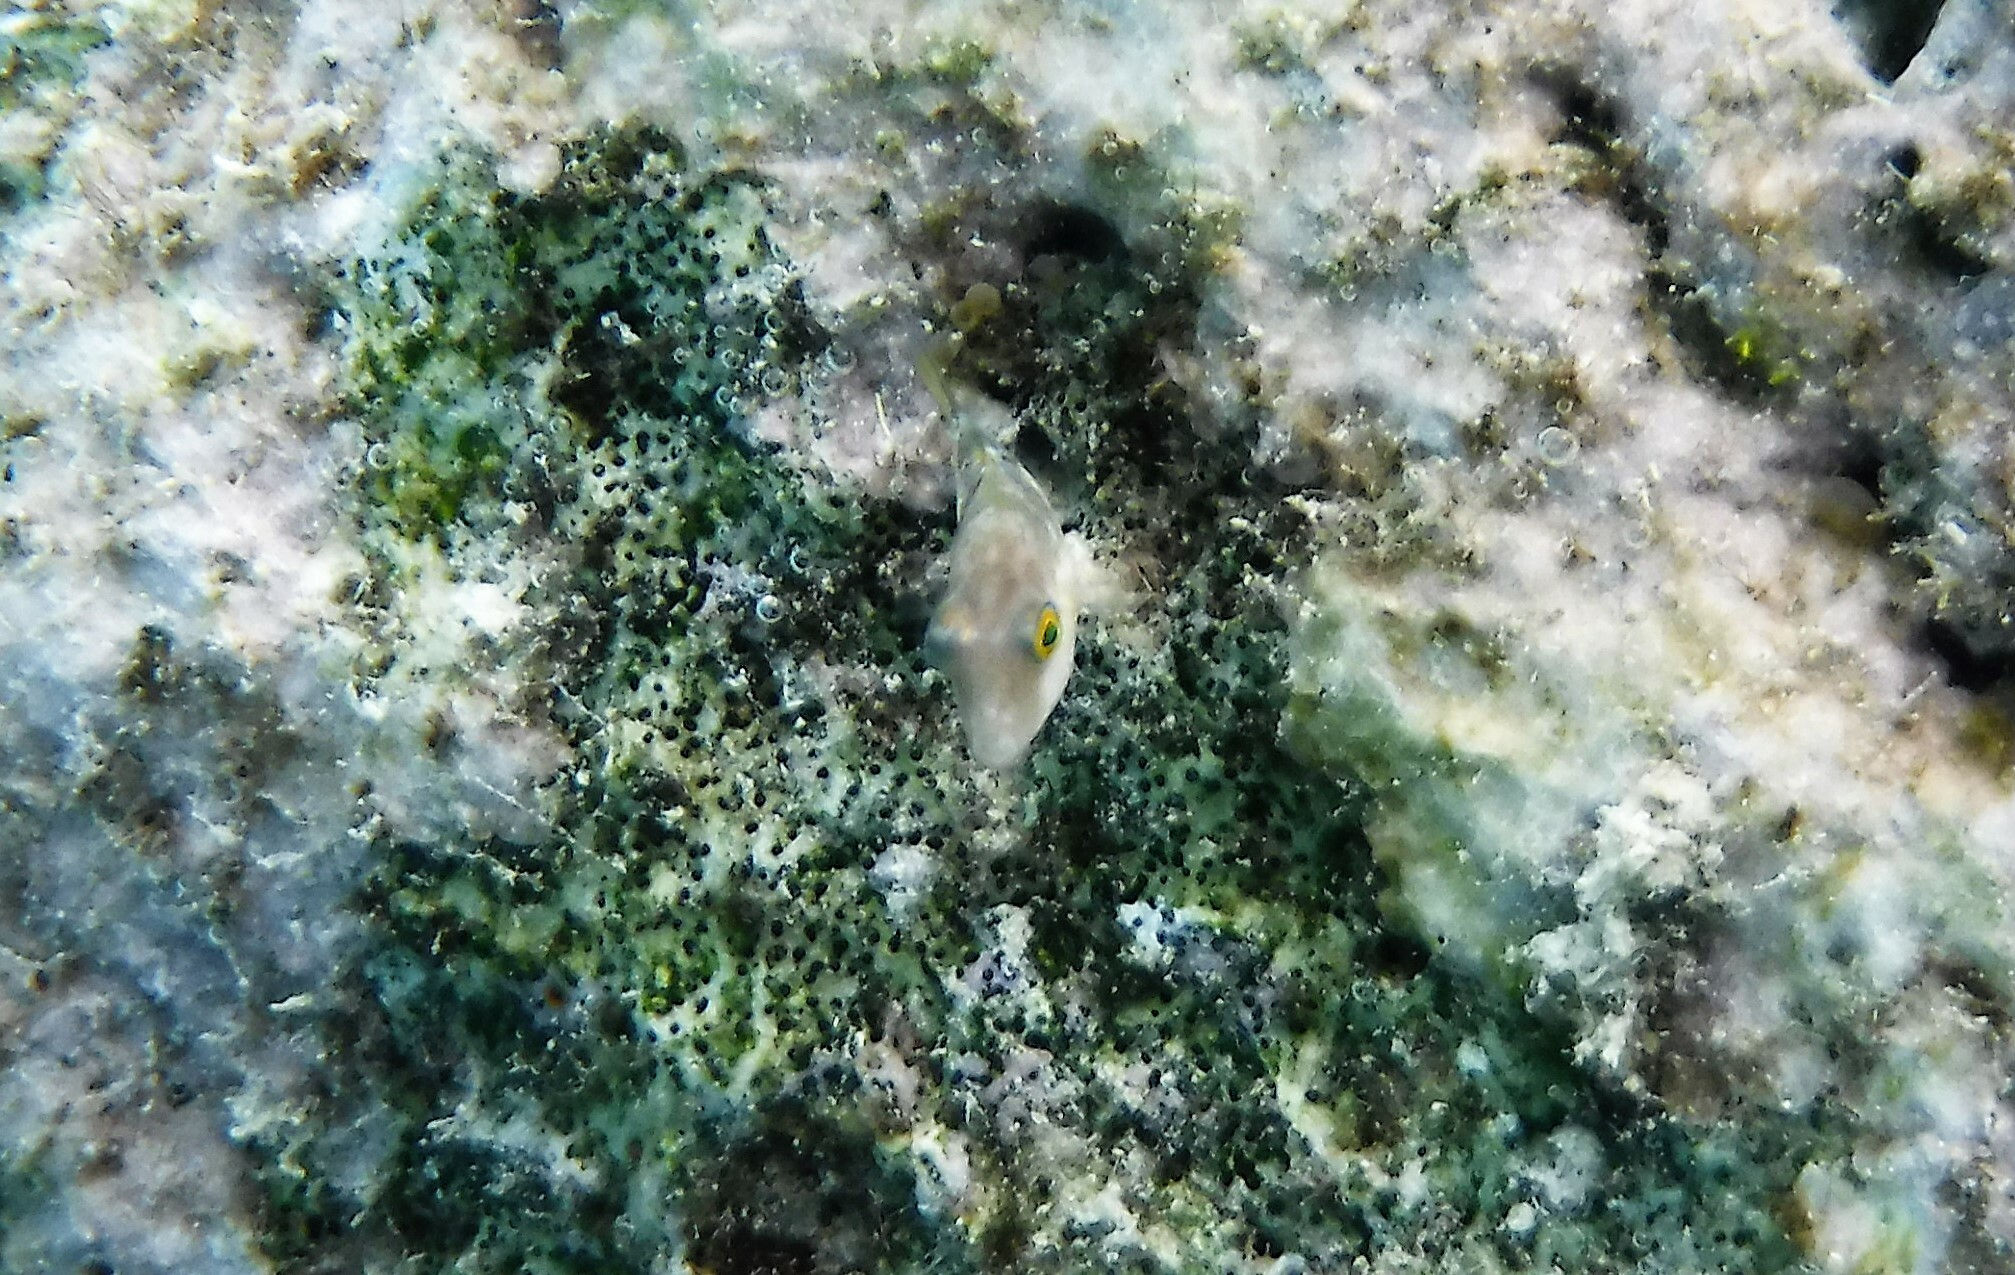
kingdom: Animalia
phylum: Chordata
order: Tetraodontiformes
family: Tetraodontidae
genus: Canthigaster
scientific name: Canthigaster rostrata
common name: Caribbean sharpnose-puffer
